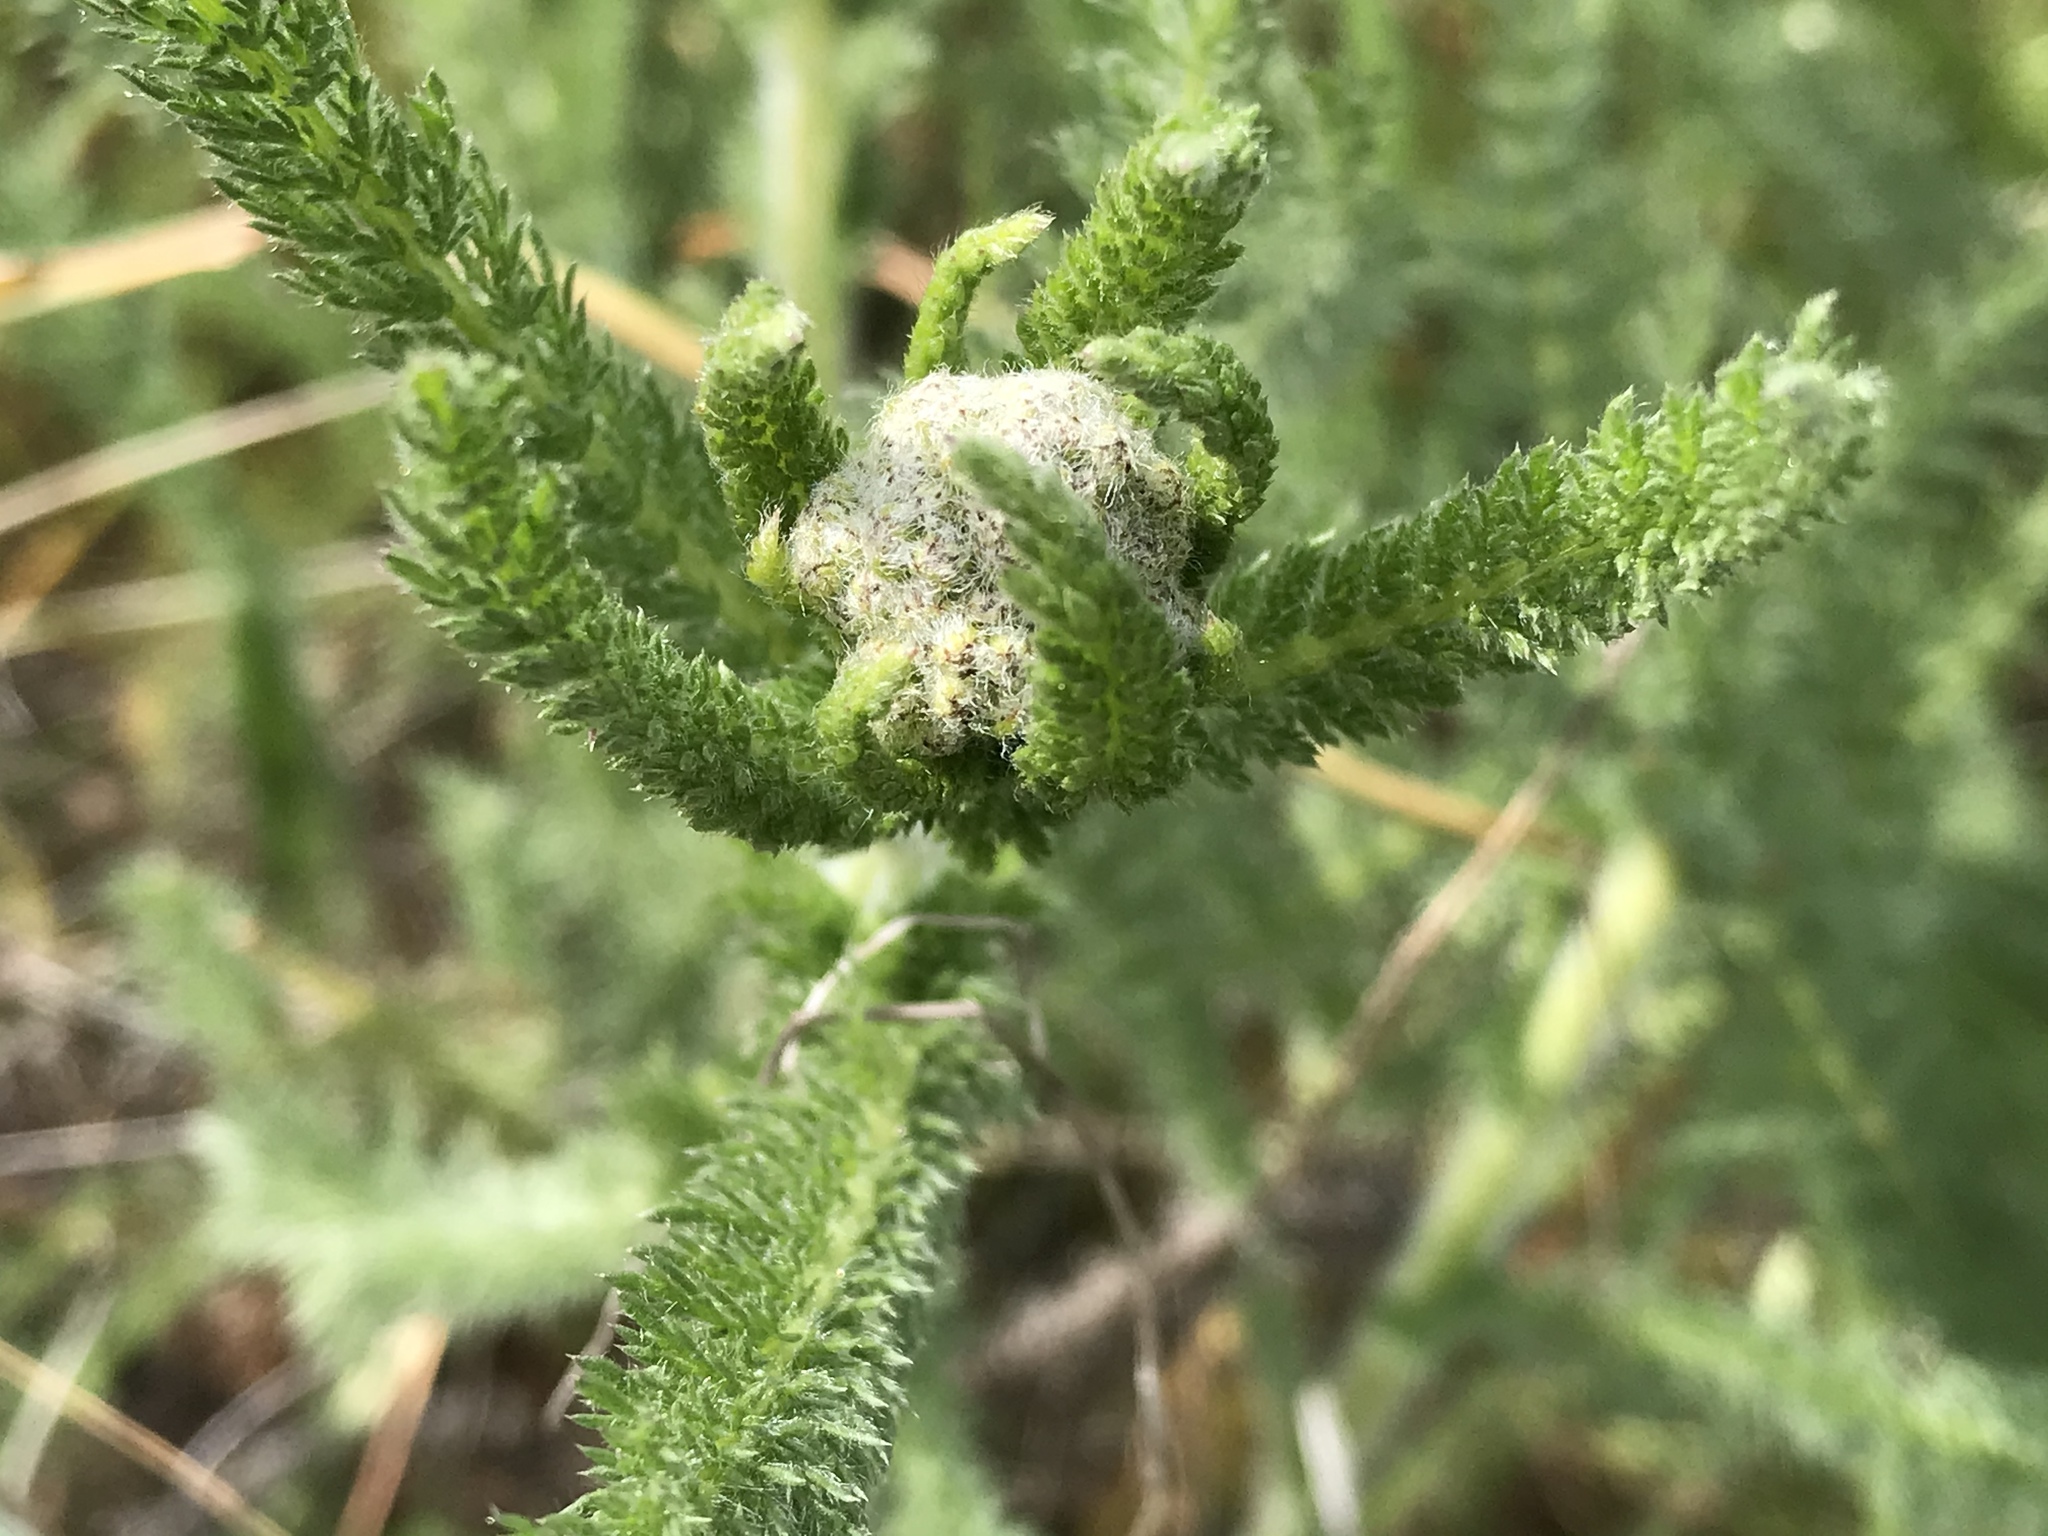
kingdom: Plantae
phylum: Tracheophyta
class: Magnoliopsida
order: Asterales
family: Asteraceae
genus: Achillea
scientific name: Achillea millefolium
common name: Yarrow
